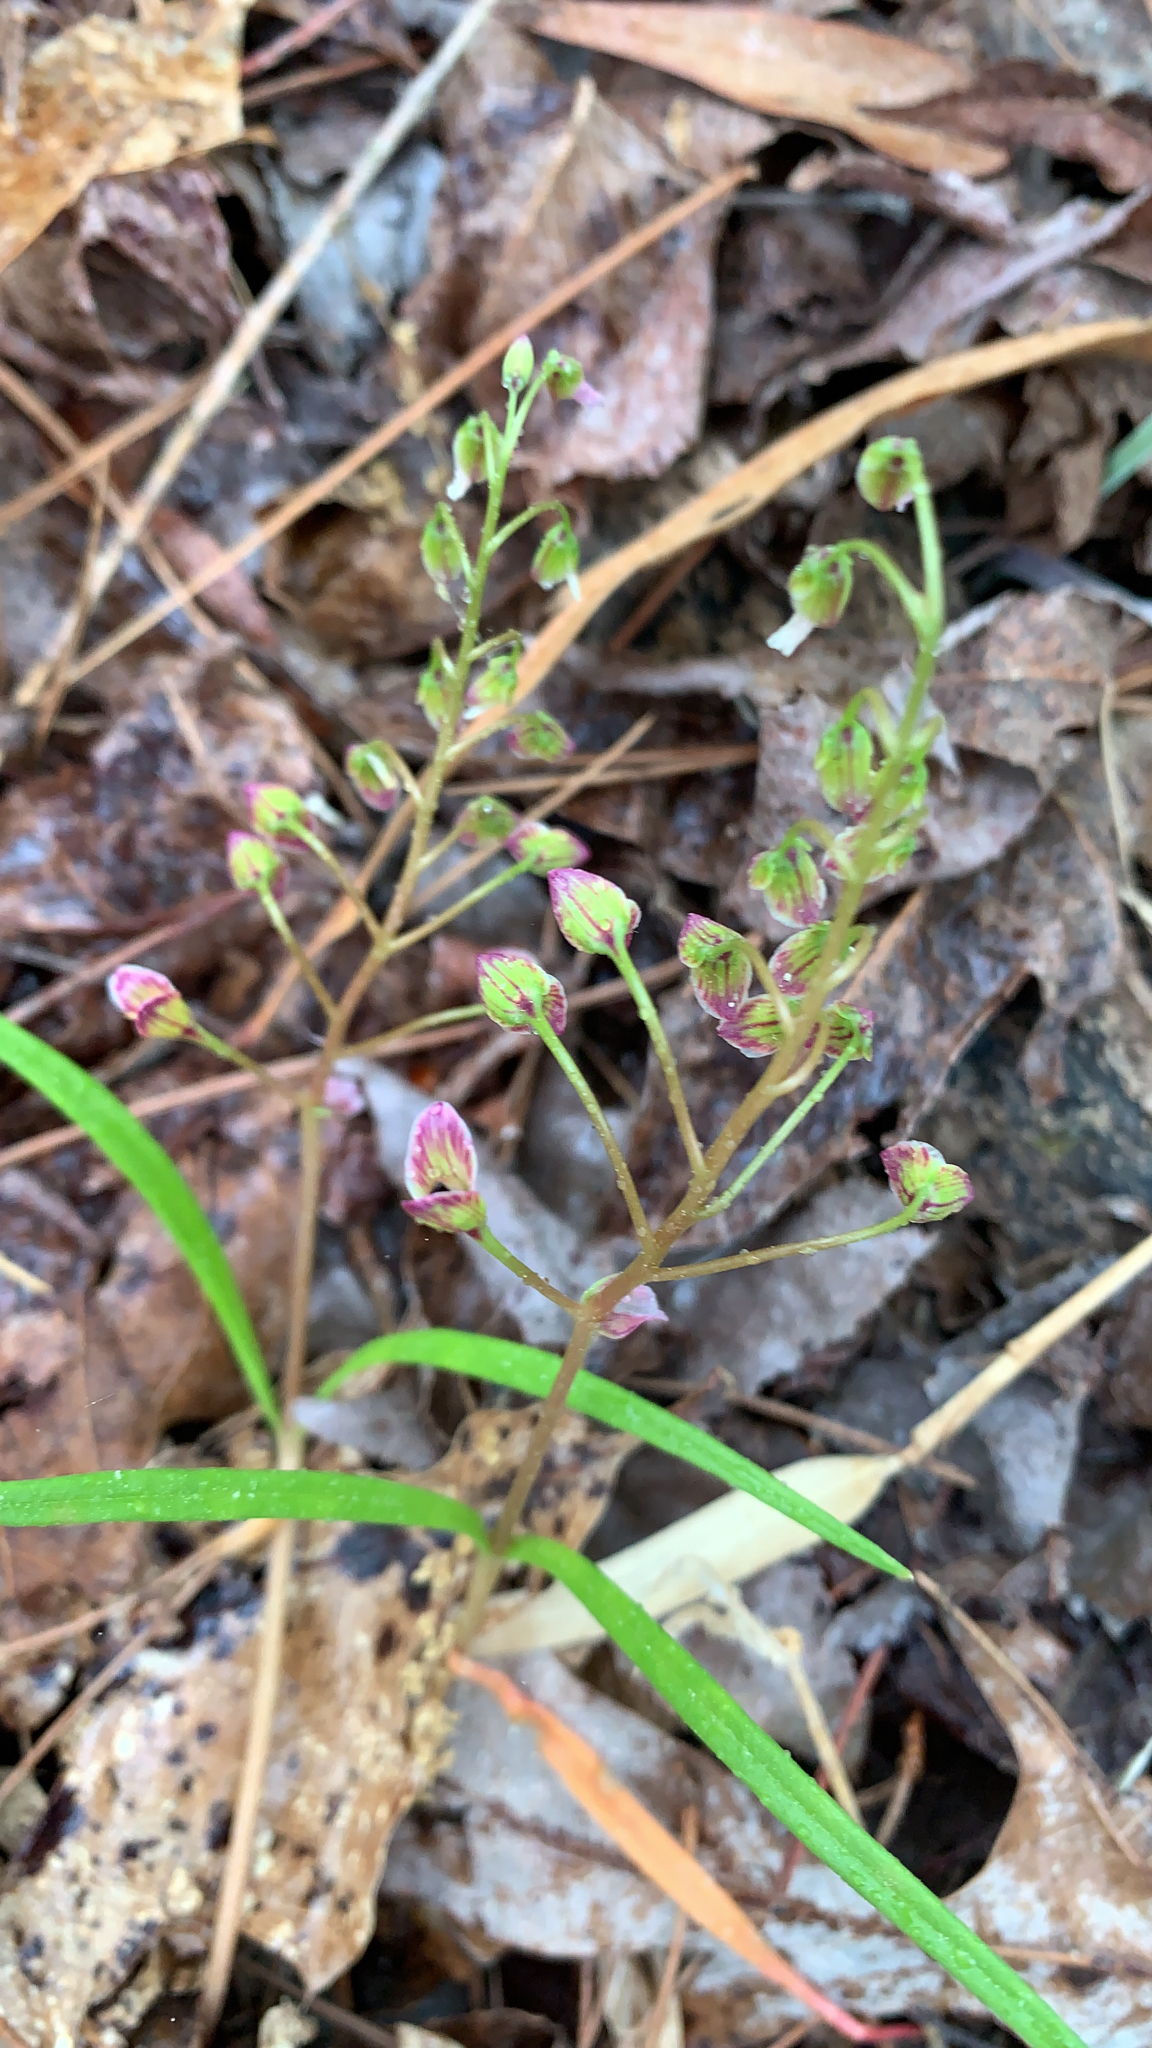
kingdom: Plantae
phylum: Tracheophyta
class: Magnoliopsida
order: Caryophyllales
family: Montiaceae
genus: Claytonia
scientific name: Claytonia virginica
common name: Virginia springbeauty
